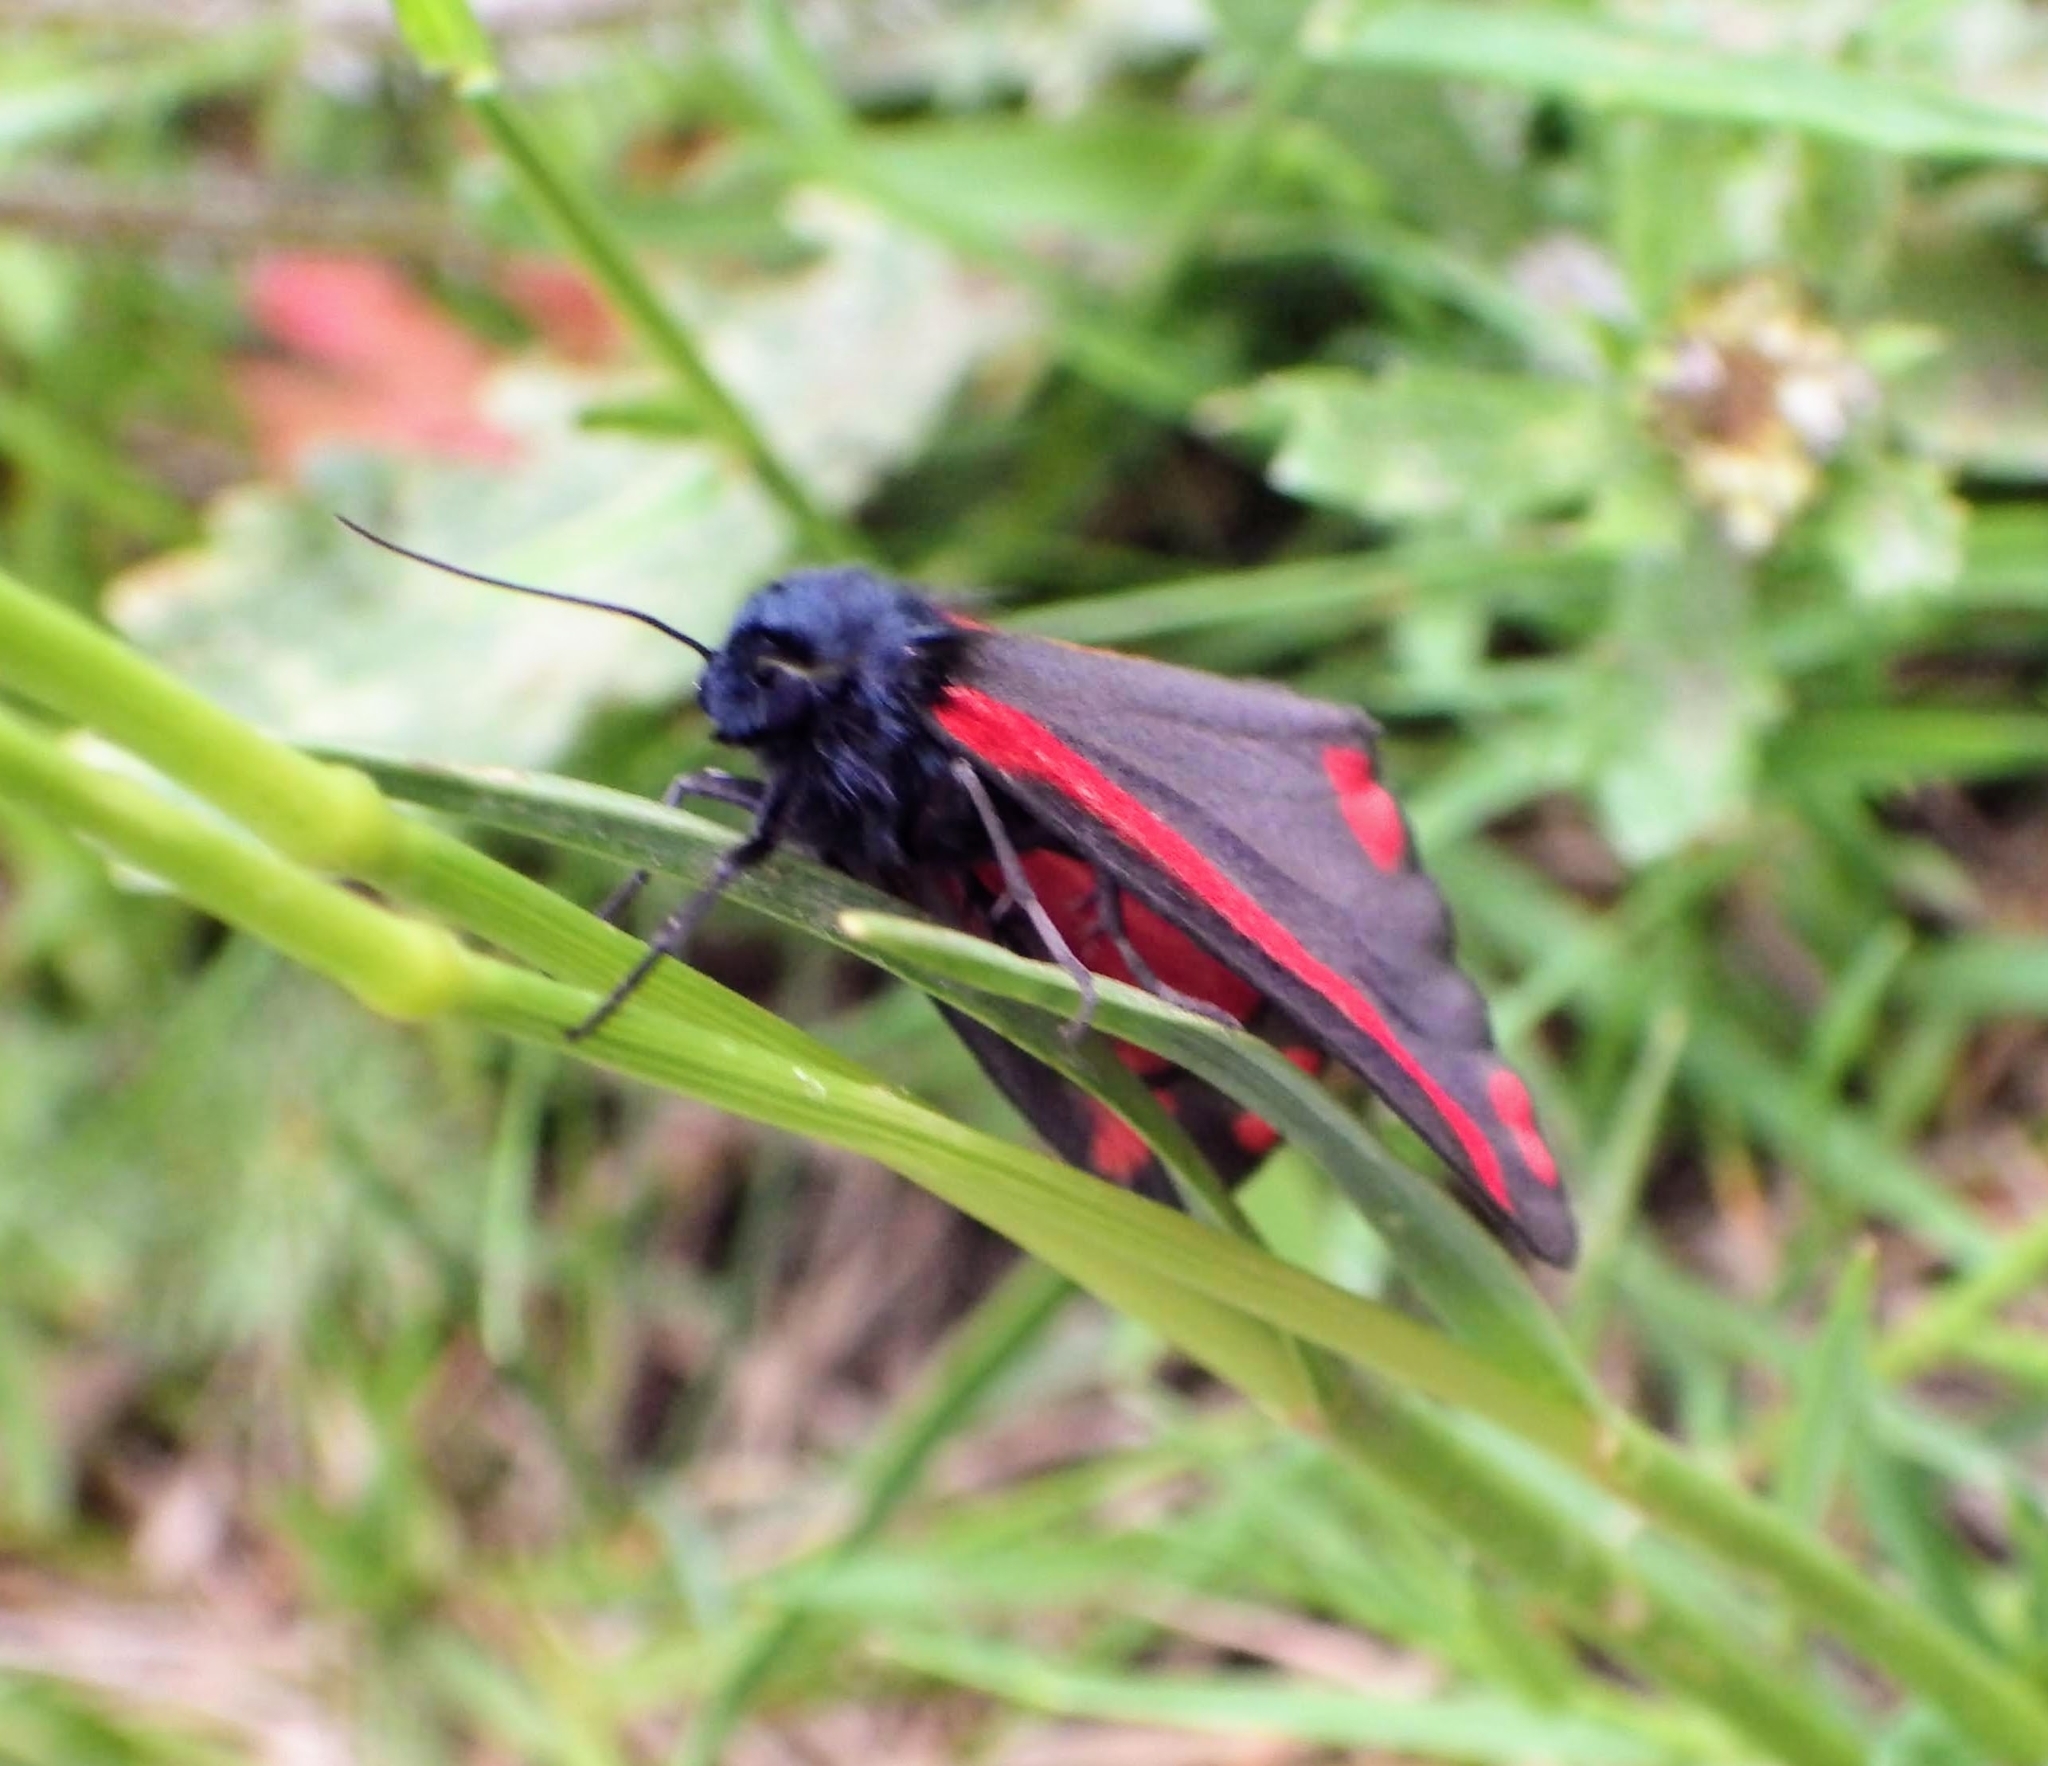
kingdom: Animalia
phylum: Arthropoda
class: Insecta
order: Lepidoptera
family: Erebidae
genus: Tyria
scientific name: Tyria jacobaeae
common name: Cinnabar
